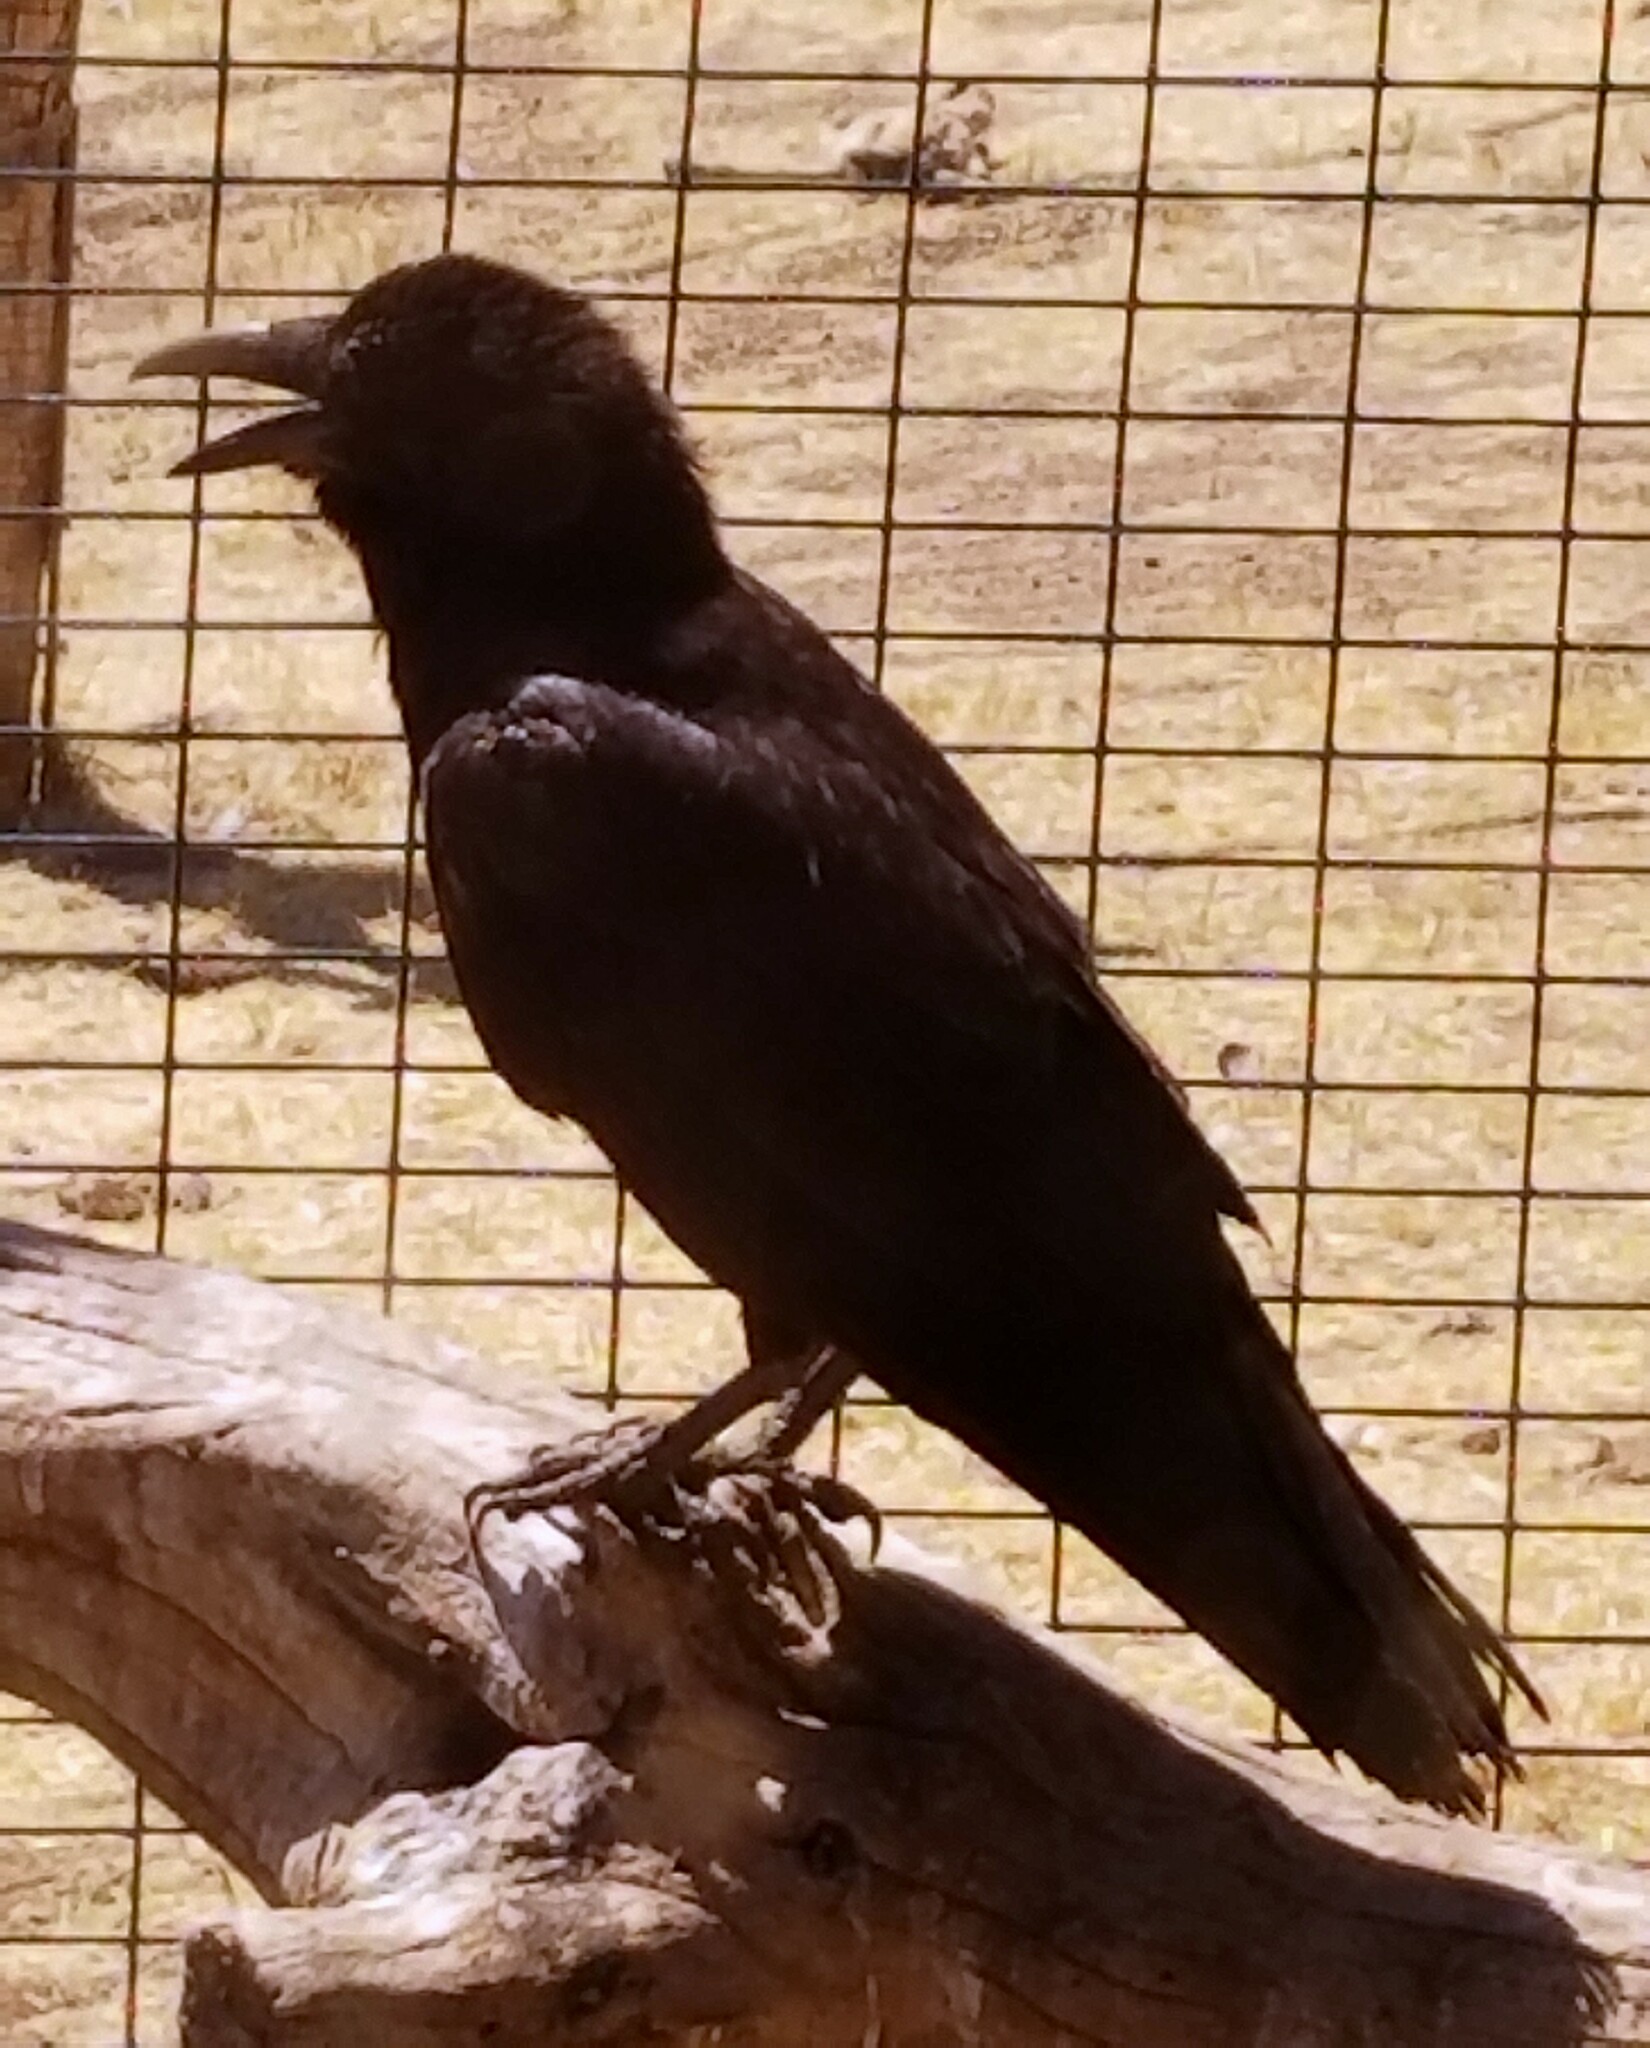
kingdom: Animalia
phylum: Chordata
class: Aves
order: Passeriformes
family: Corvidae
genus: Corvus
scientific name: Corvus corax
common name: Common raven
